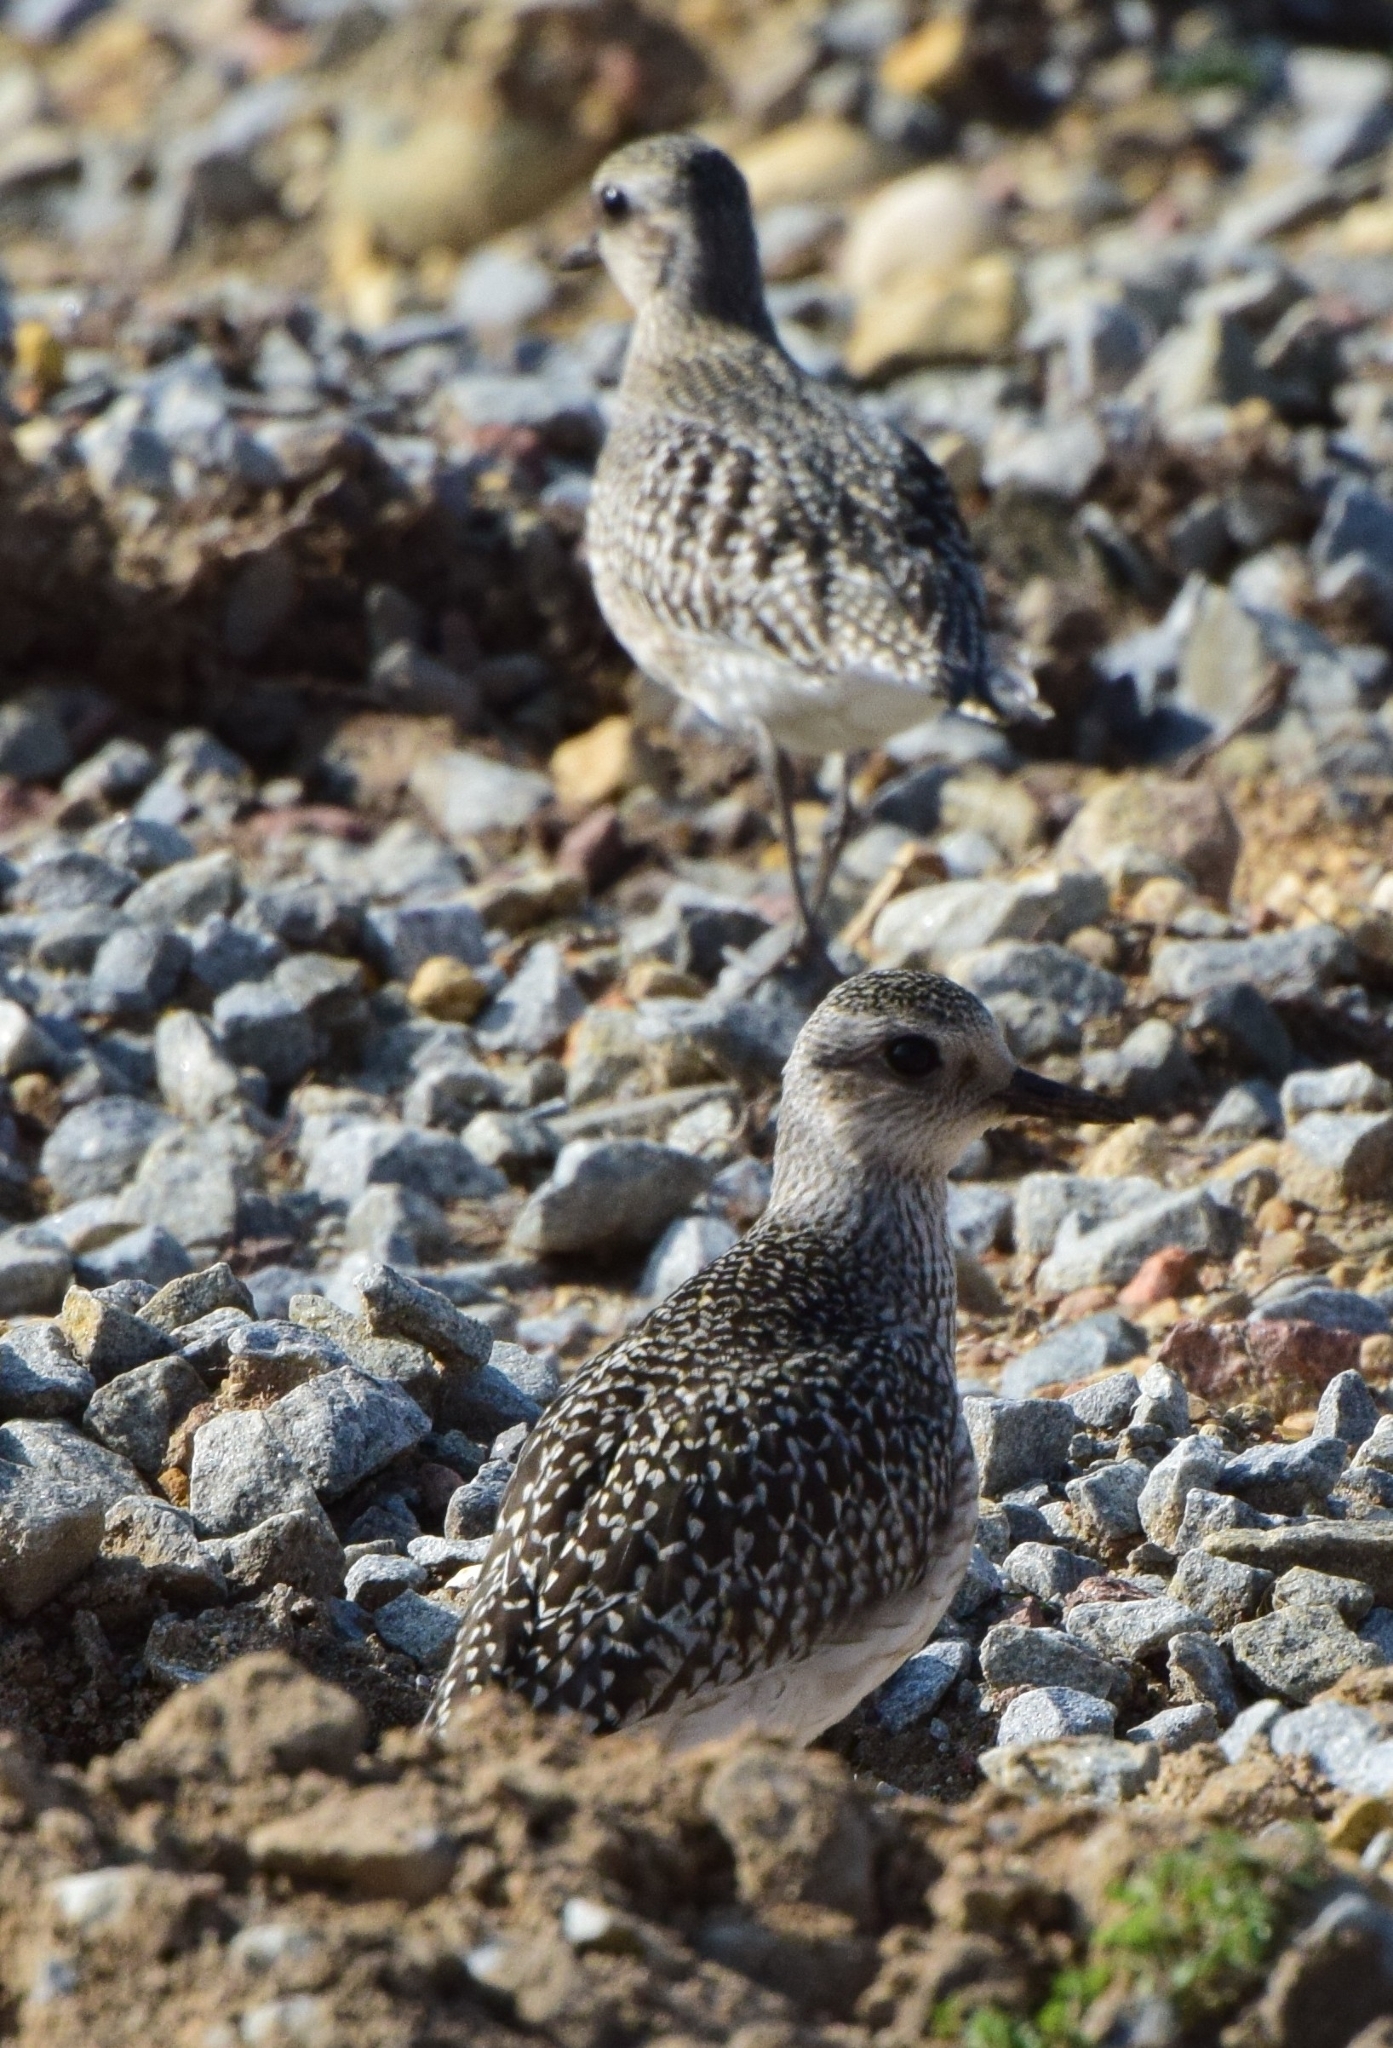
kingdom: Animalia
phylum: Chordata
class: Aves
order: Charadriiformes
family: Charadriidae
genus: Pluvialis
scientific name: Pluvialis squatarola
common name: Grey plover
